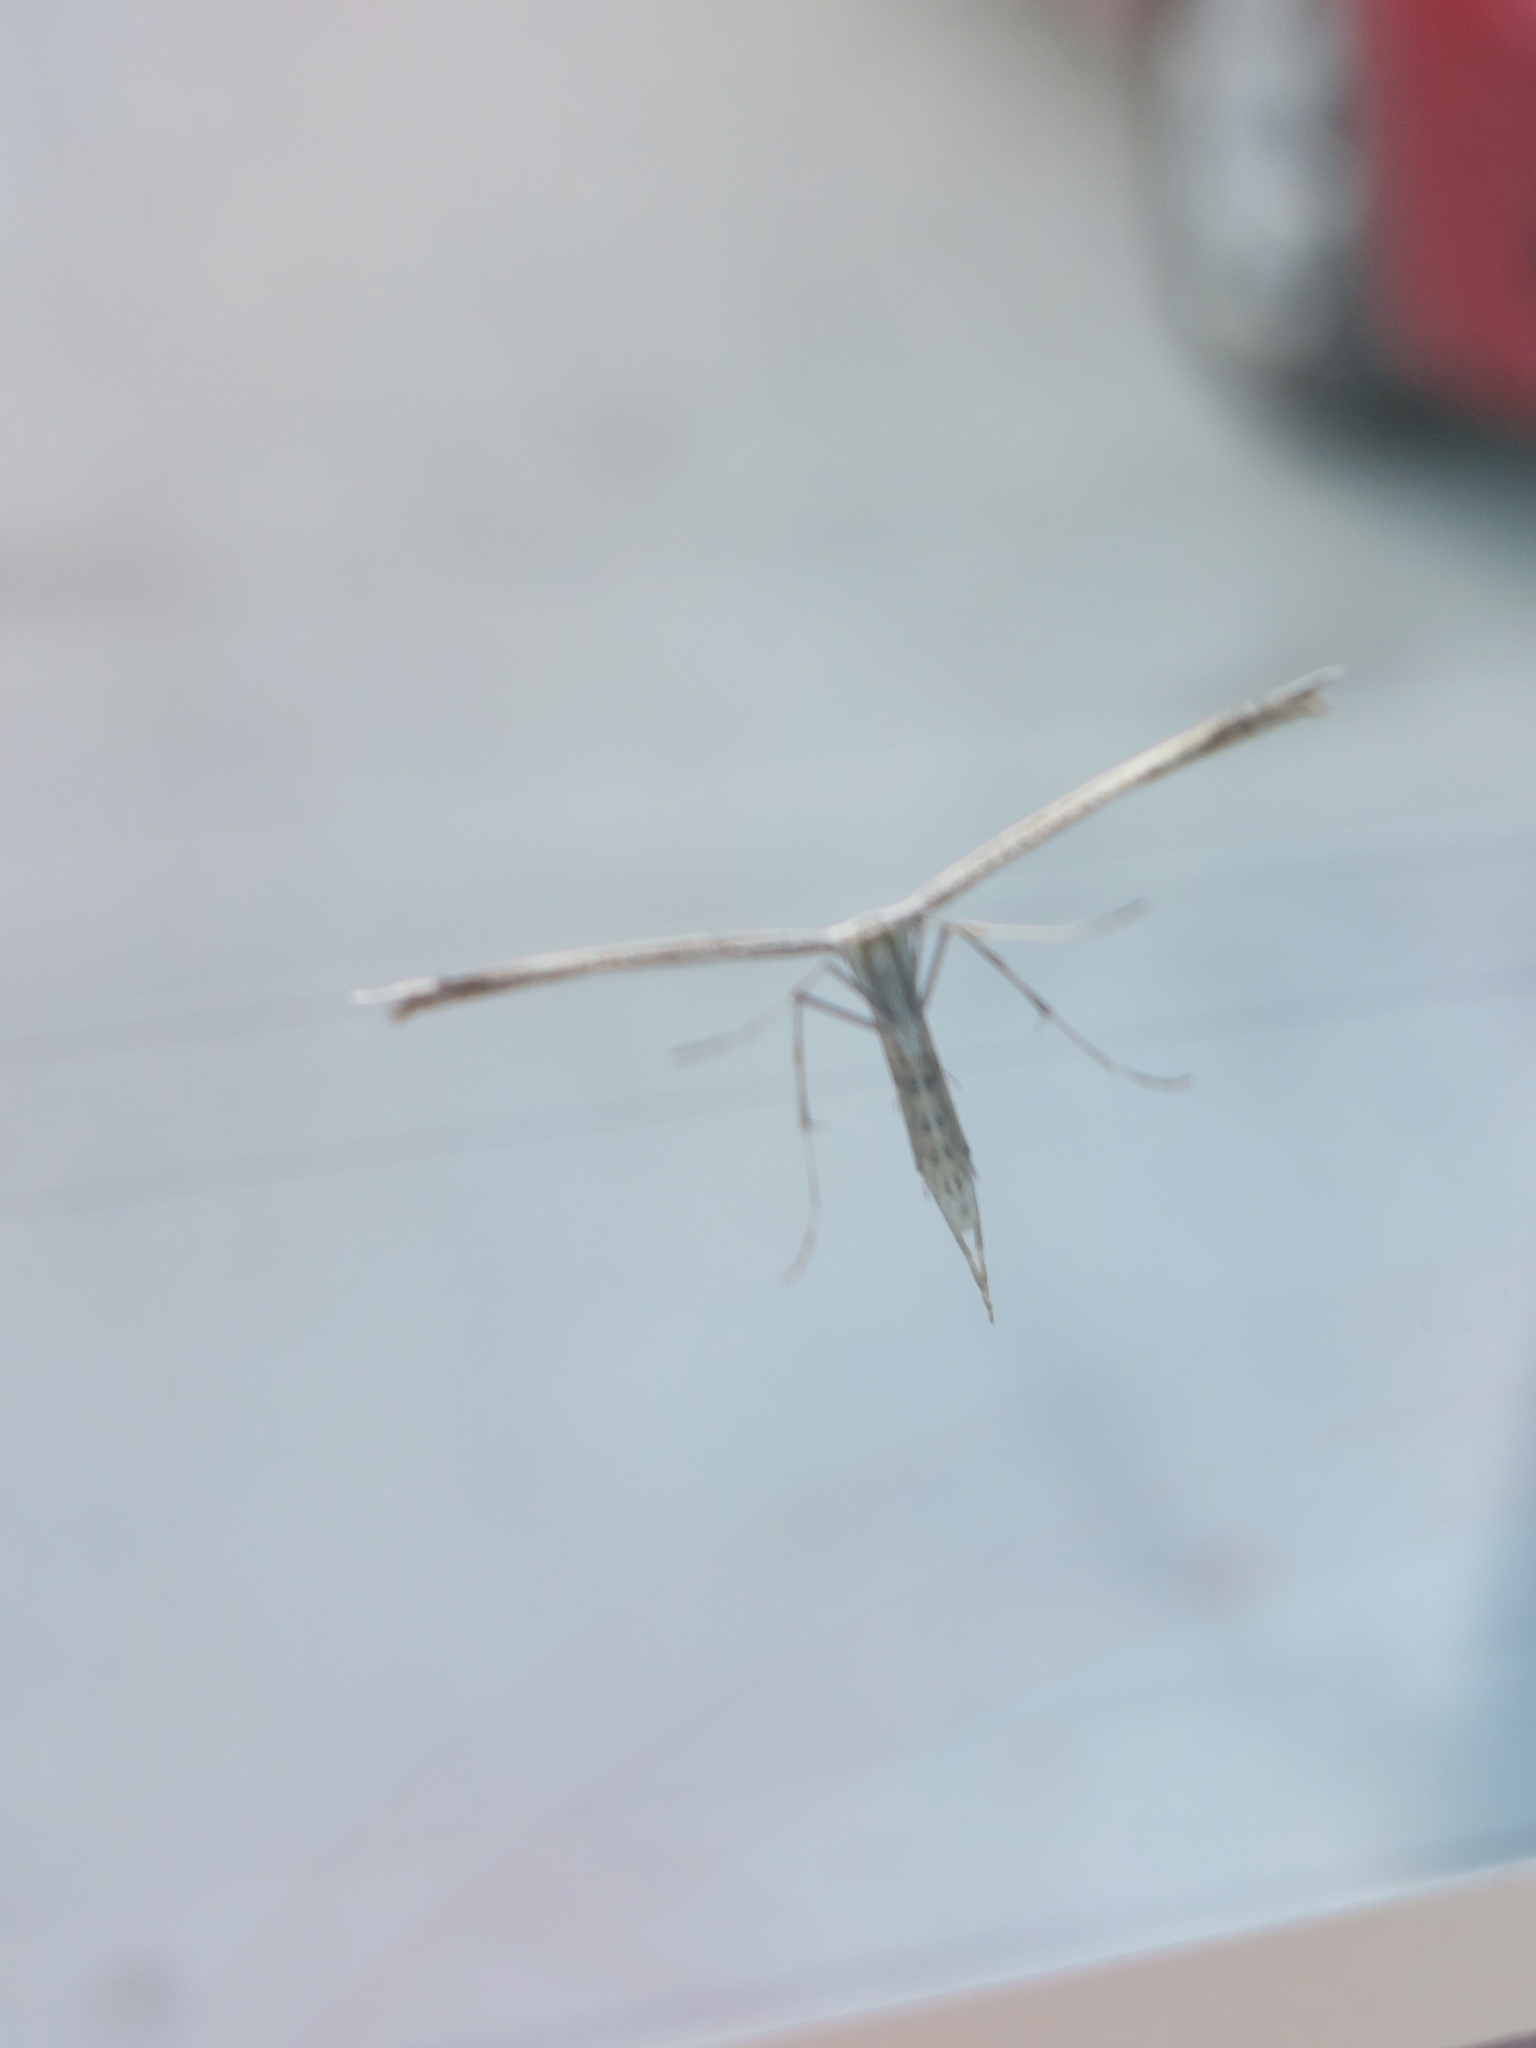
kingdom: Animalia
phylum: Arthropoda
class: Insecta
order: Lepidoptera
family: Pterophoridae
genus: Emmelina
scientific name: Emmelina monodactyla
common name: Common plume
